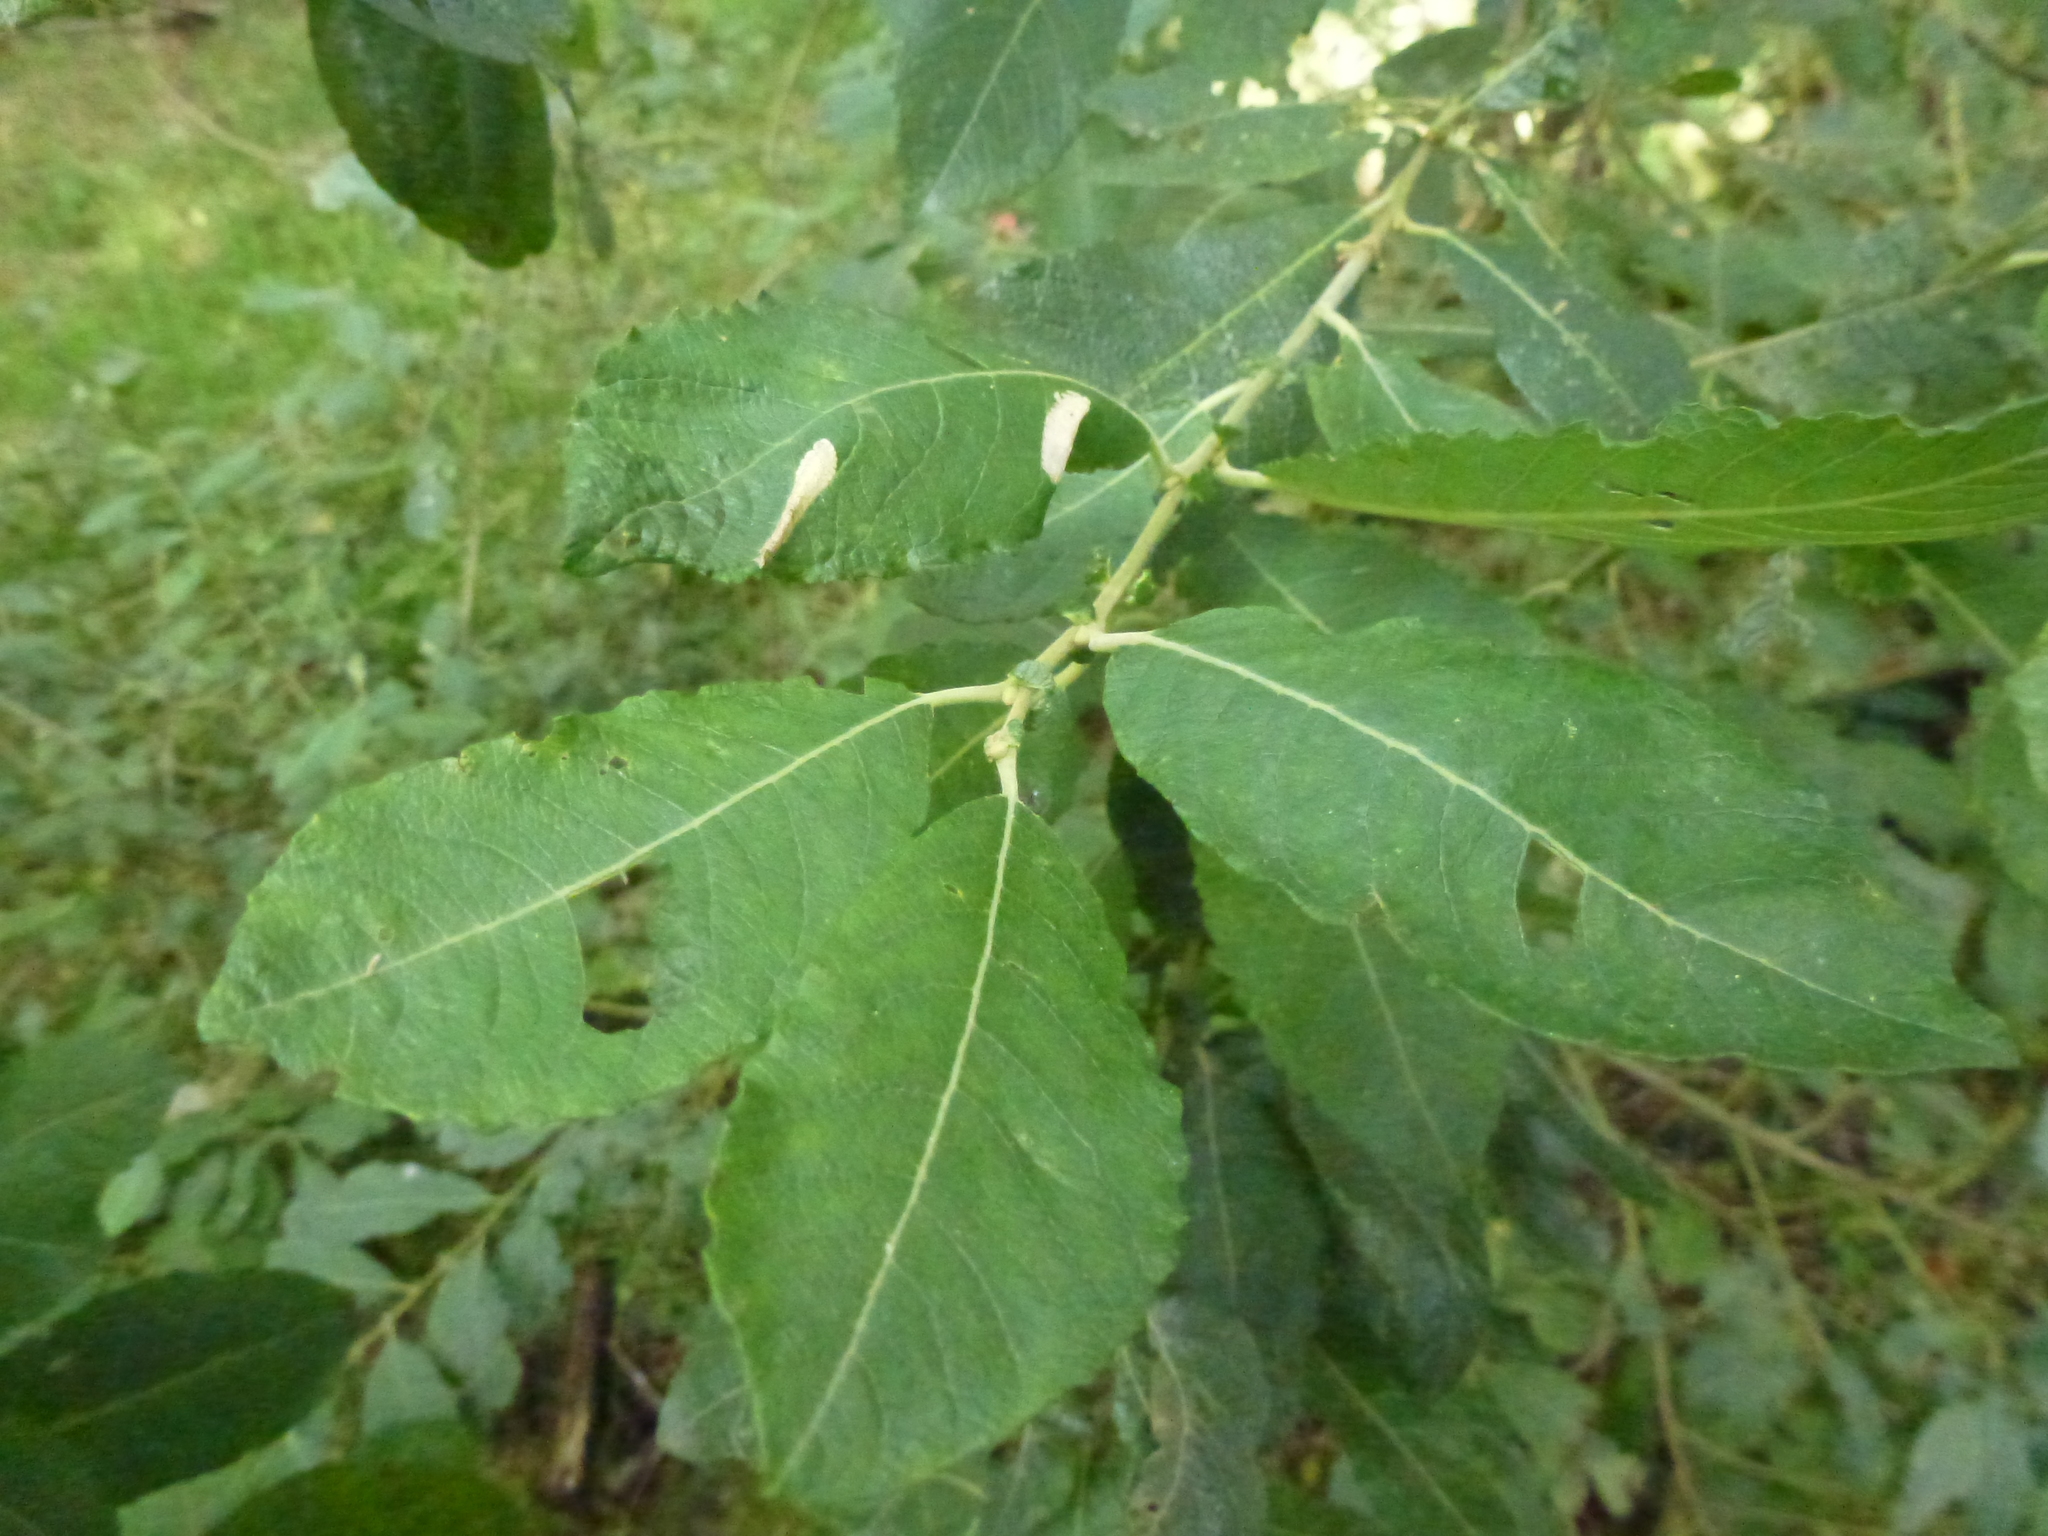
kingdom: Animalia
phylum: Arthropoda
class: Insecta
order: Lepidoptera
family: Gracillariidae
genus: Phyllonorycter
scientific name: Phyllonorycter salictella
